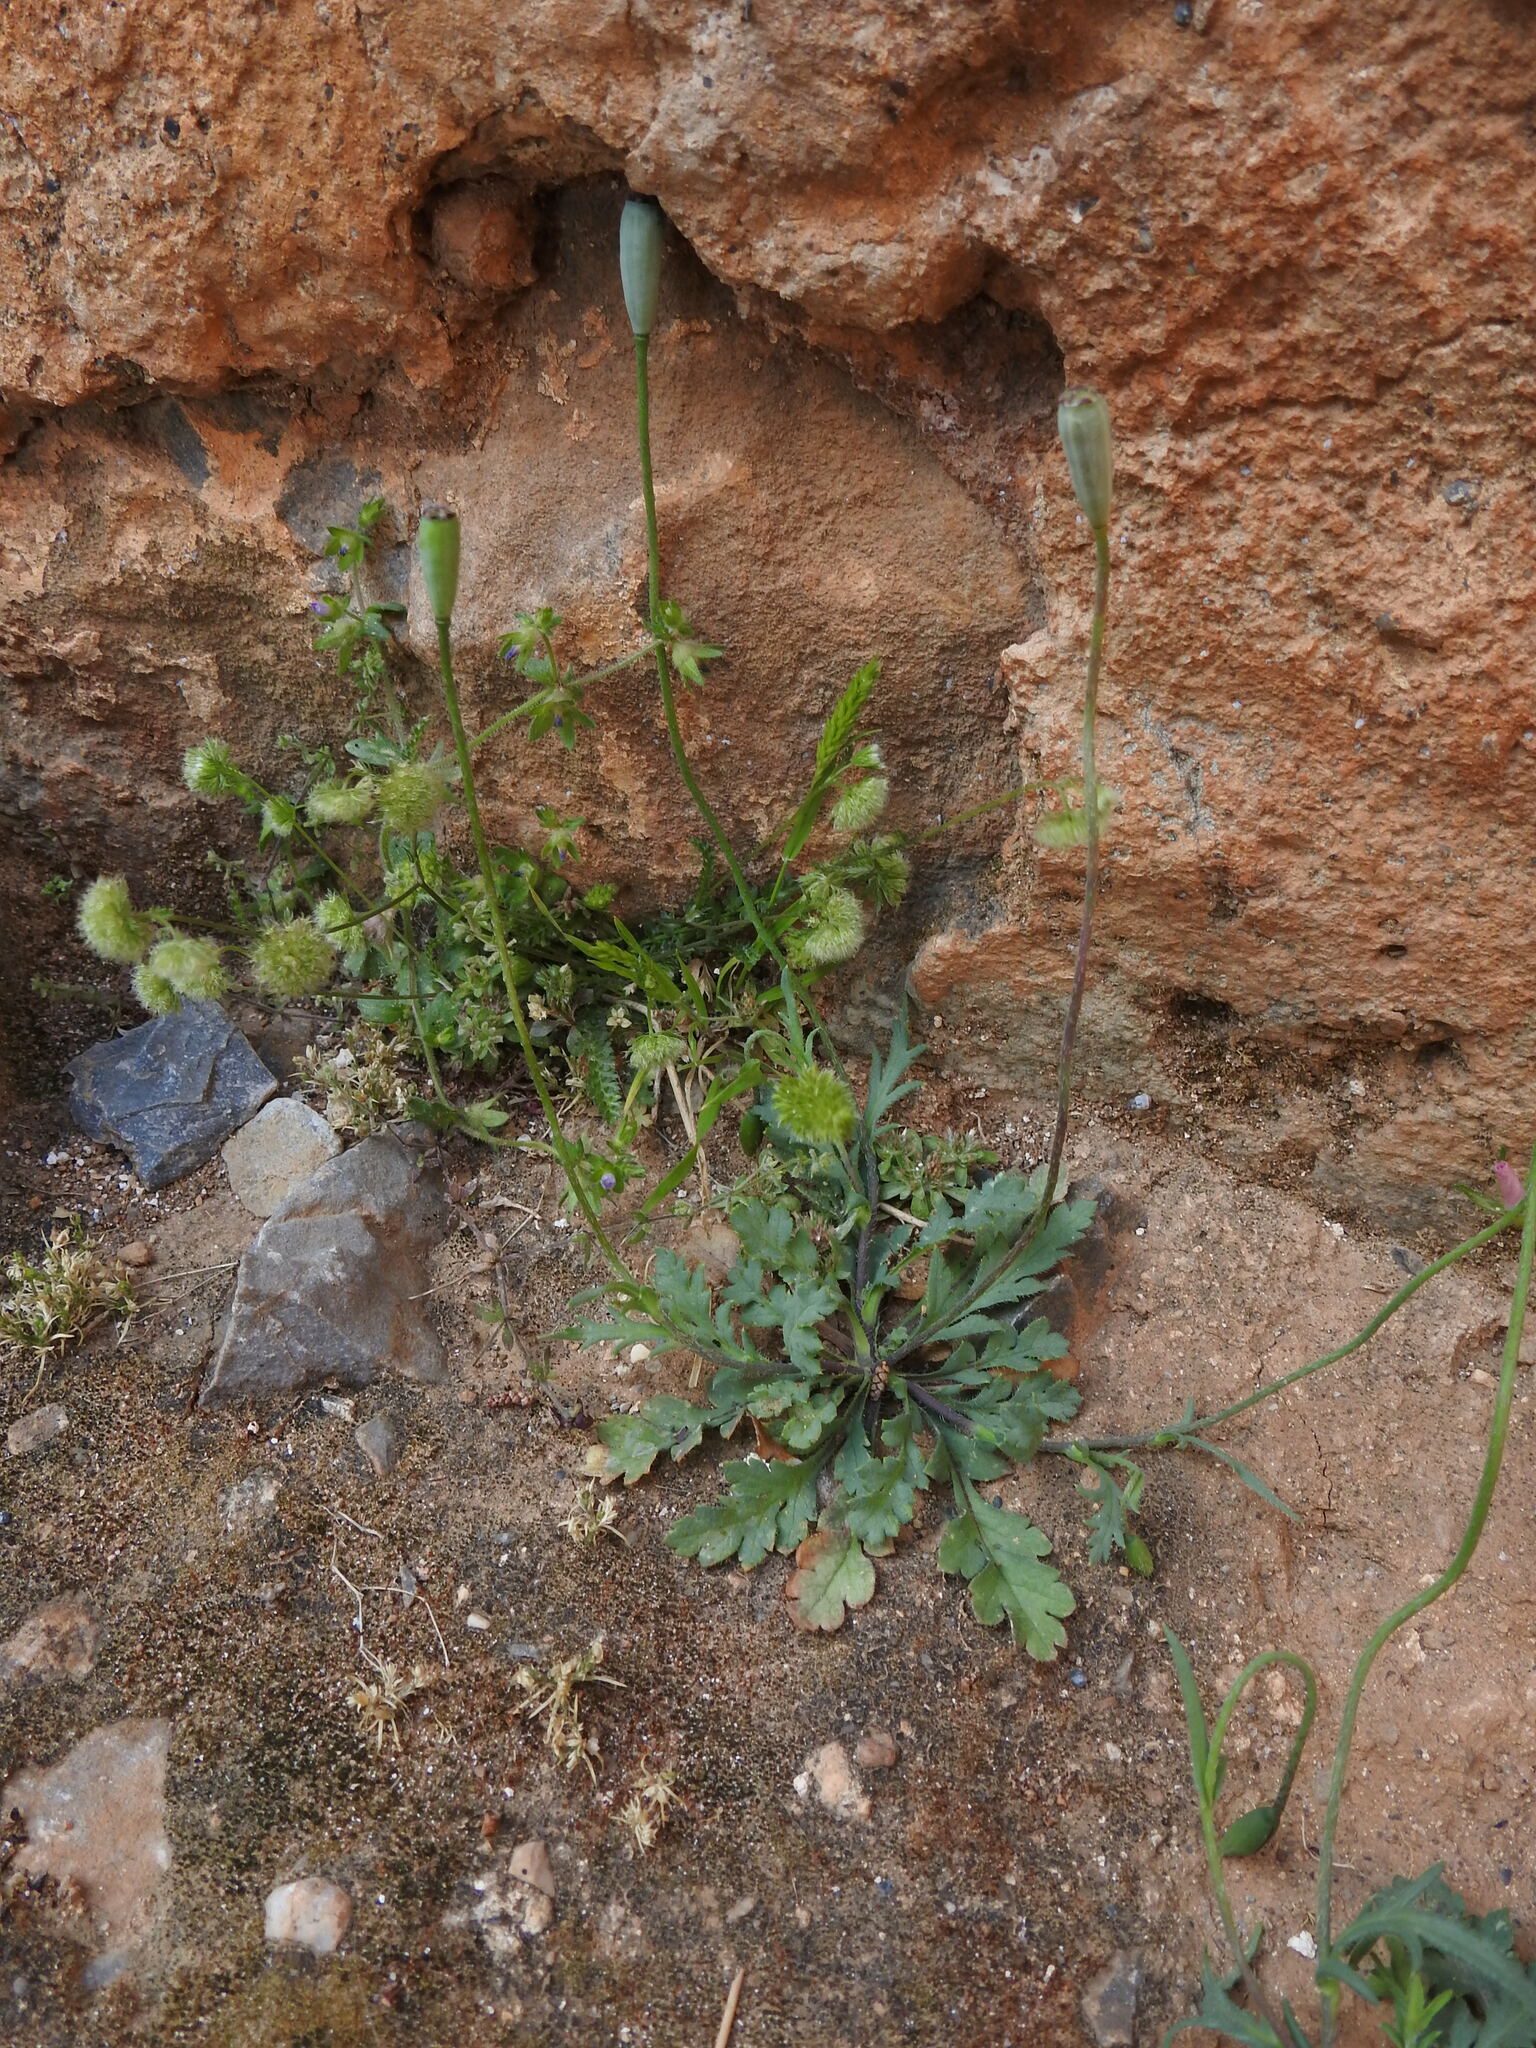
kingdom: Plantae
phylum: Tracheophyta
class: Magnoliopsida
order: Ranunculales
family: Papaveraceae
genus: Papaver
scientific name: Papaver purpureomarginatum
